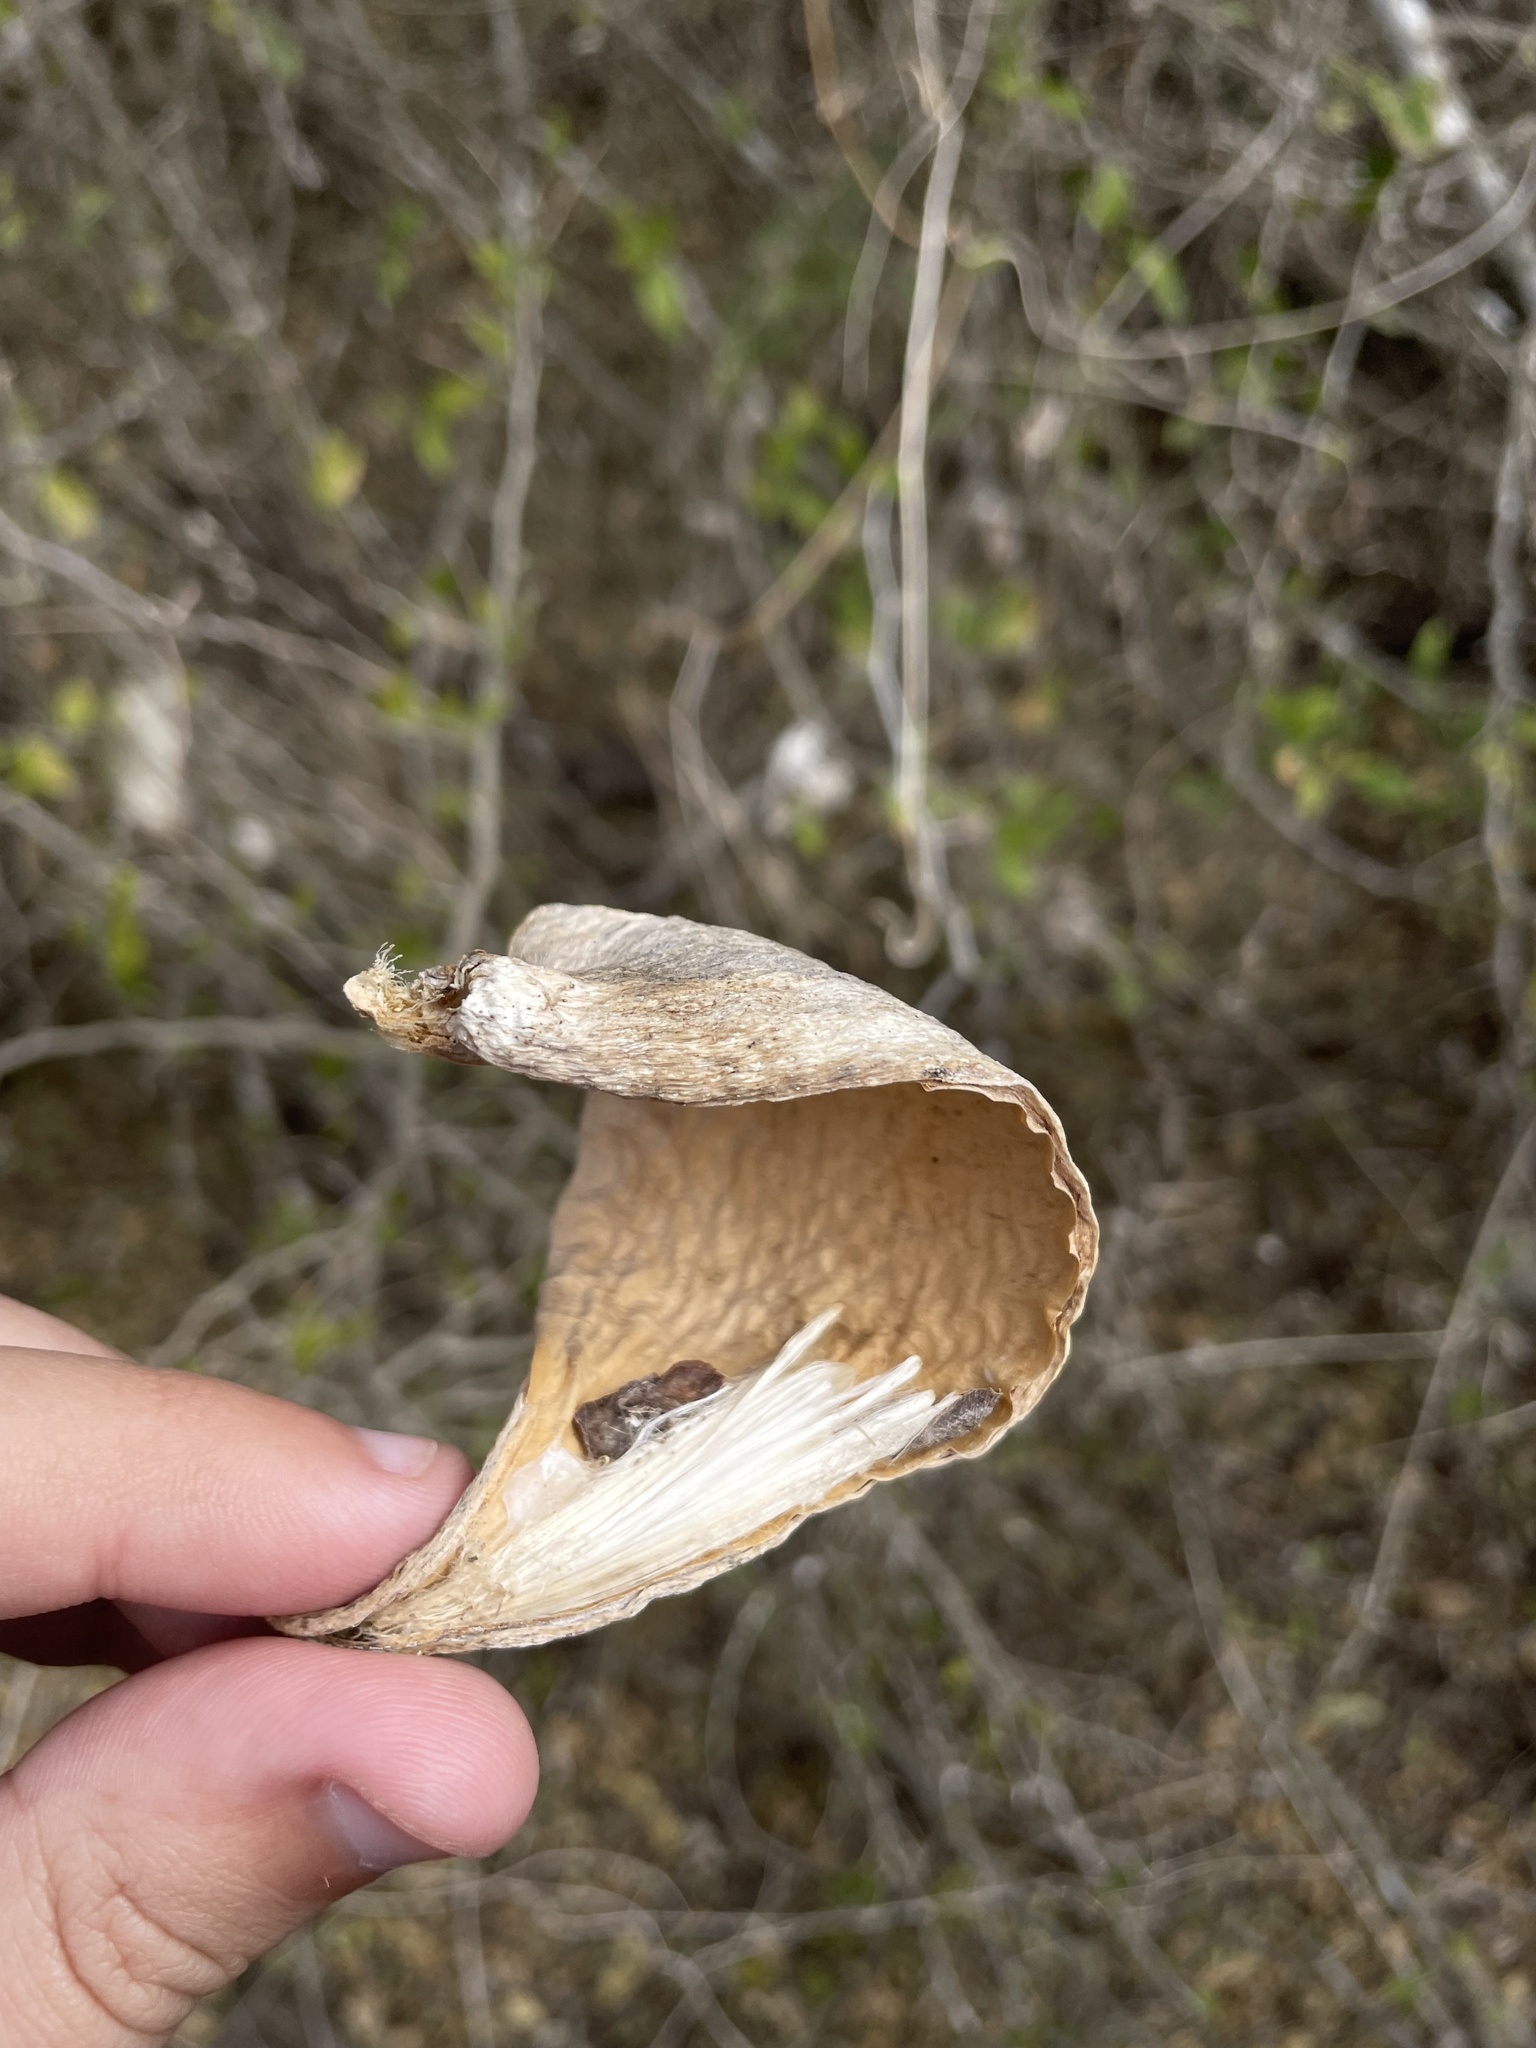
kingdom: Plantae
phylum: Tracheophyta
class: Magnoliopsida
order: Gentianales
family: Apocynaceae
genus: Cynanchum
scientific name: Cynanchum racemosum
